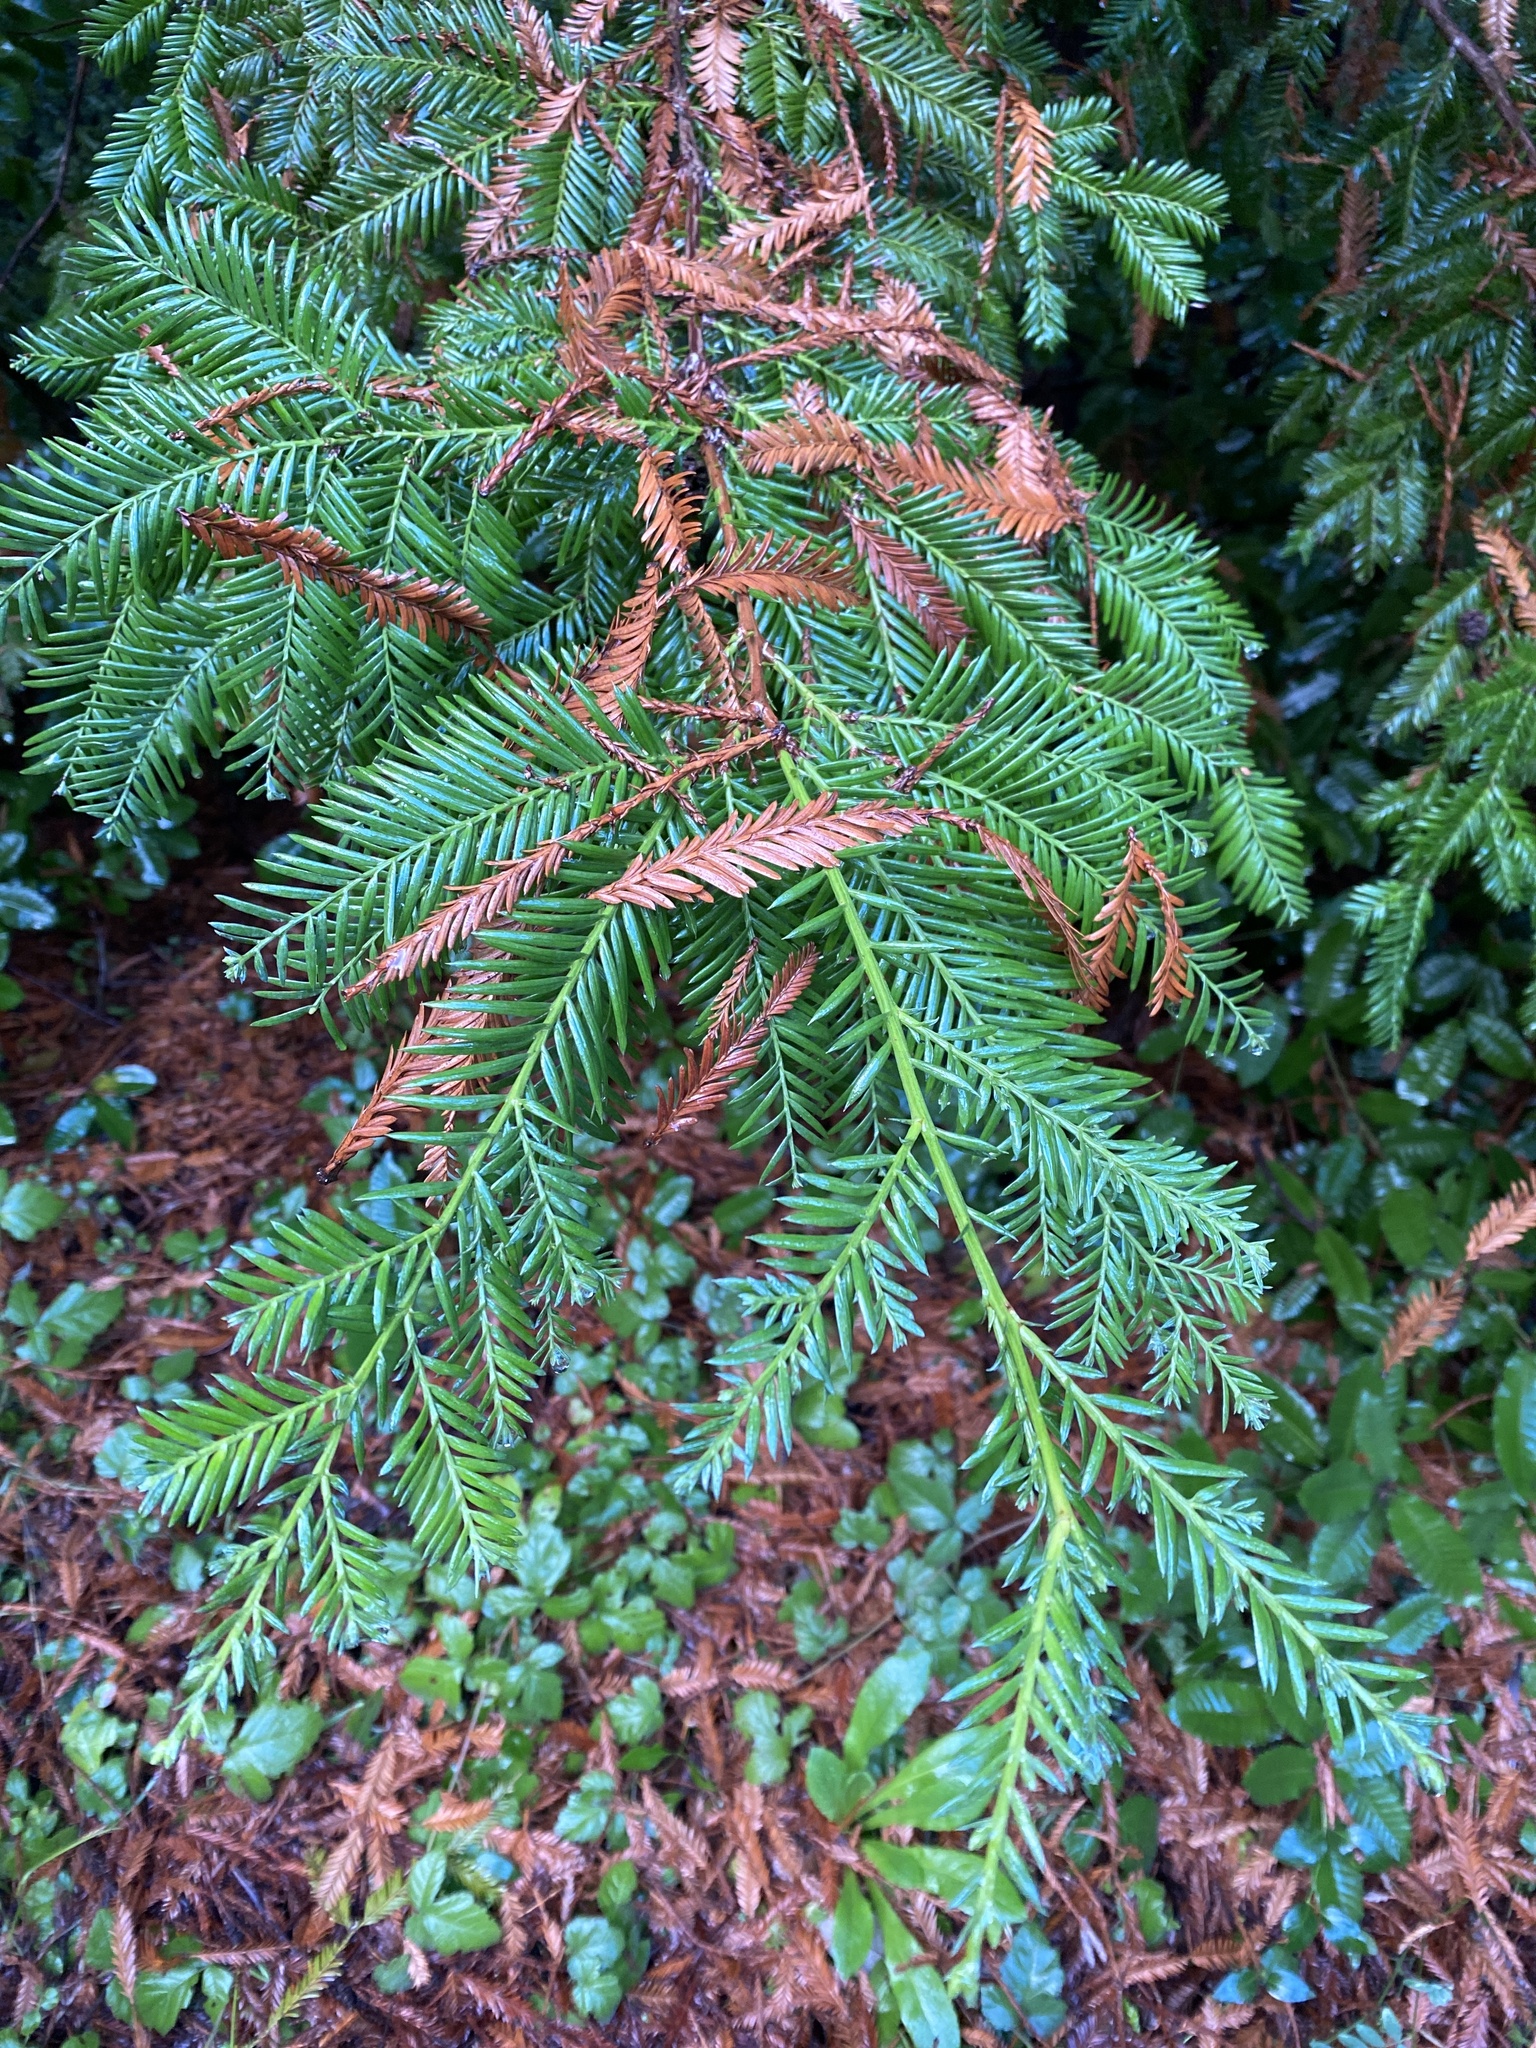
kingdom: Plantae
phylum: Tracheophyta
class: Pinopsida
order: Pinales
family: Cupressaceae
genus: Sequoia
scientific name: Sequoia sempervirens
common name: Coast redwood
